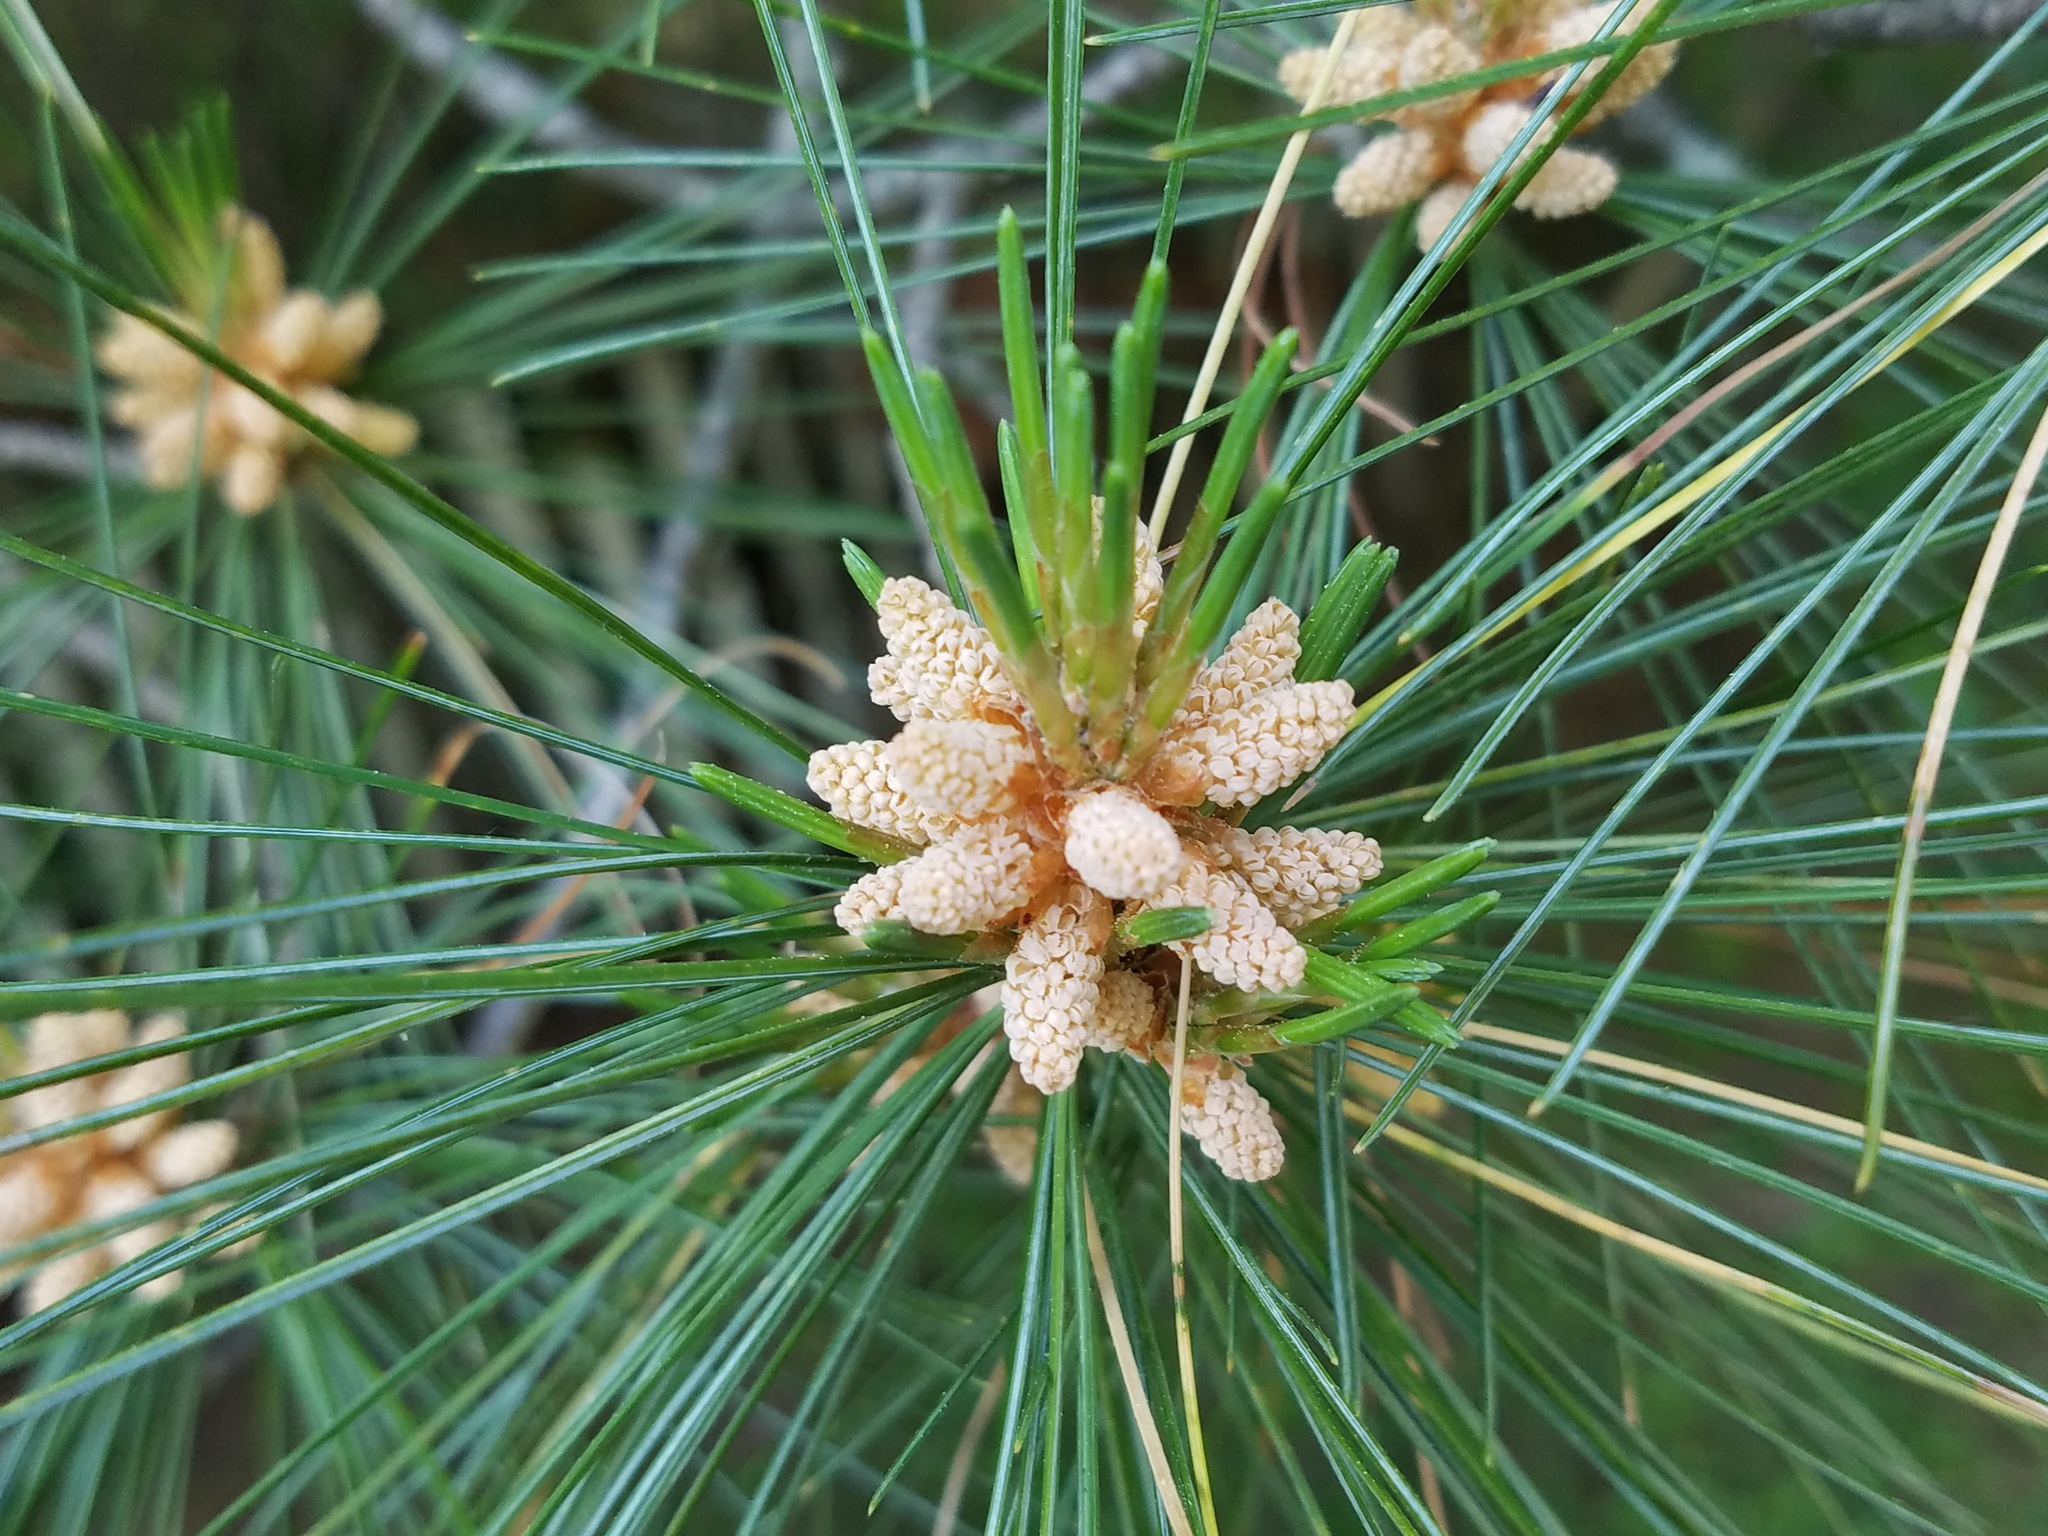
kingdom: Plantae
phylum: Tracheophyta
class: Pinopsida
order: Pinales
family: Pinaceae
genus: Pinus
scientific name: Pinus strobus
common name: Weymouth pine
